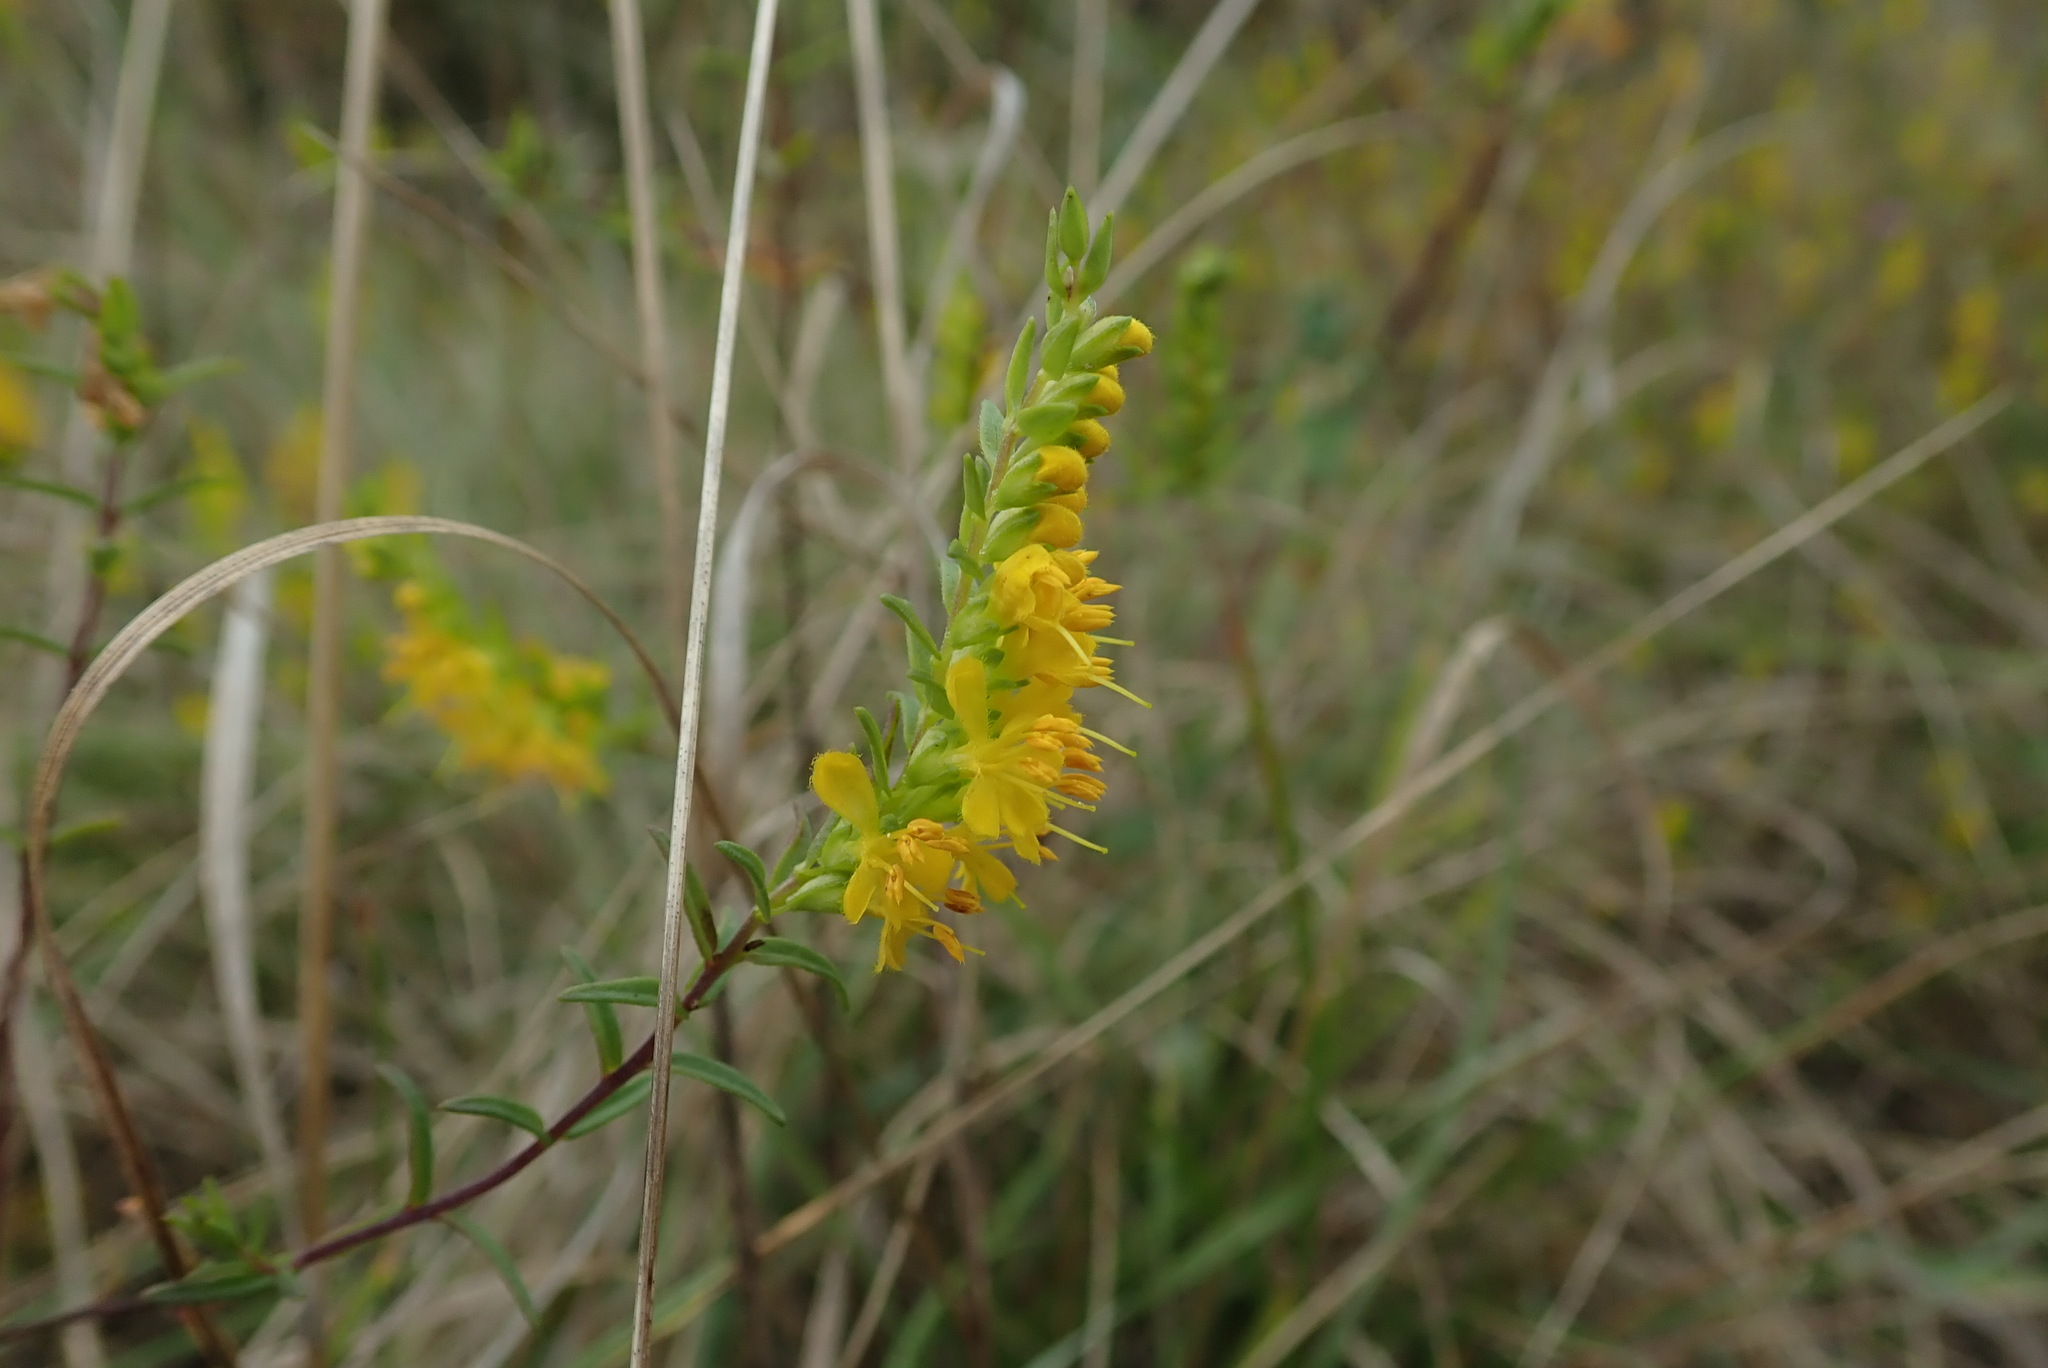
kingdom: Plantae
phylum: Tracheophyta
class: Magnoliopsida
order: Lamiales
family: Orobanchaceae
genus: Odontites
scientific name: Odontites luteus
